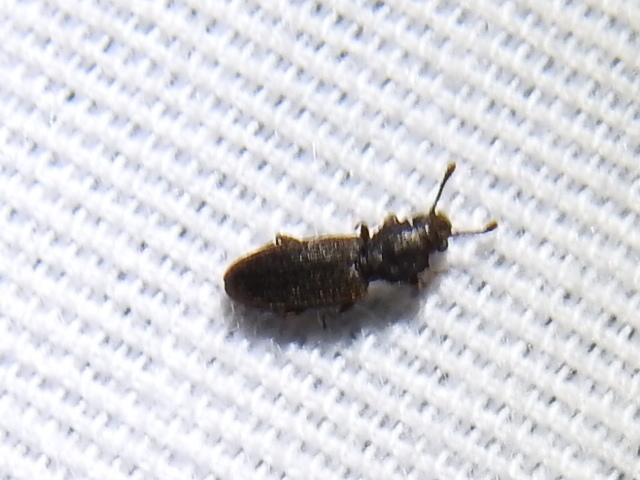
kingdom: Animalia
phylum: Arthropoda
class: Insecta
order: Coleoptera
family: Silvanidae
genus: Nausibius
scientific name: Nausibius major
